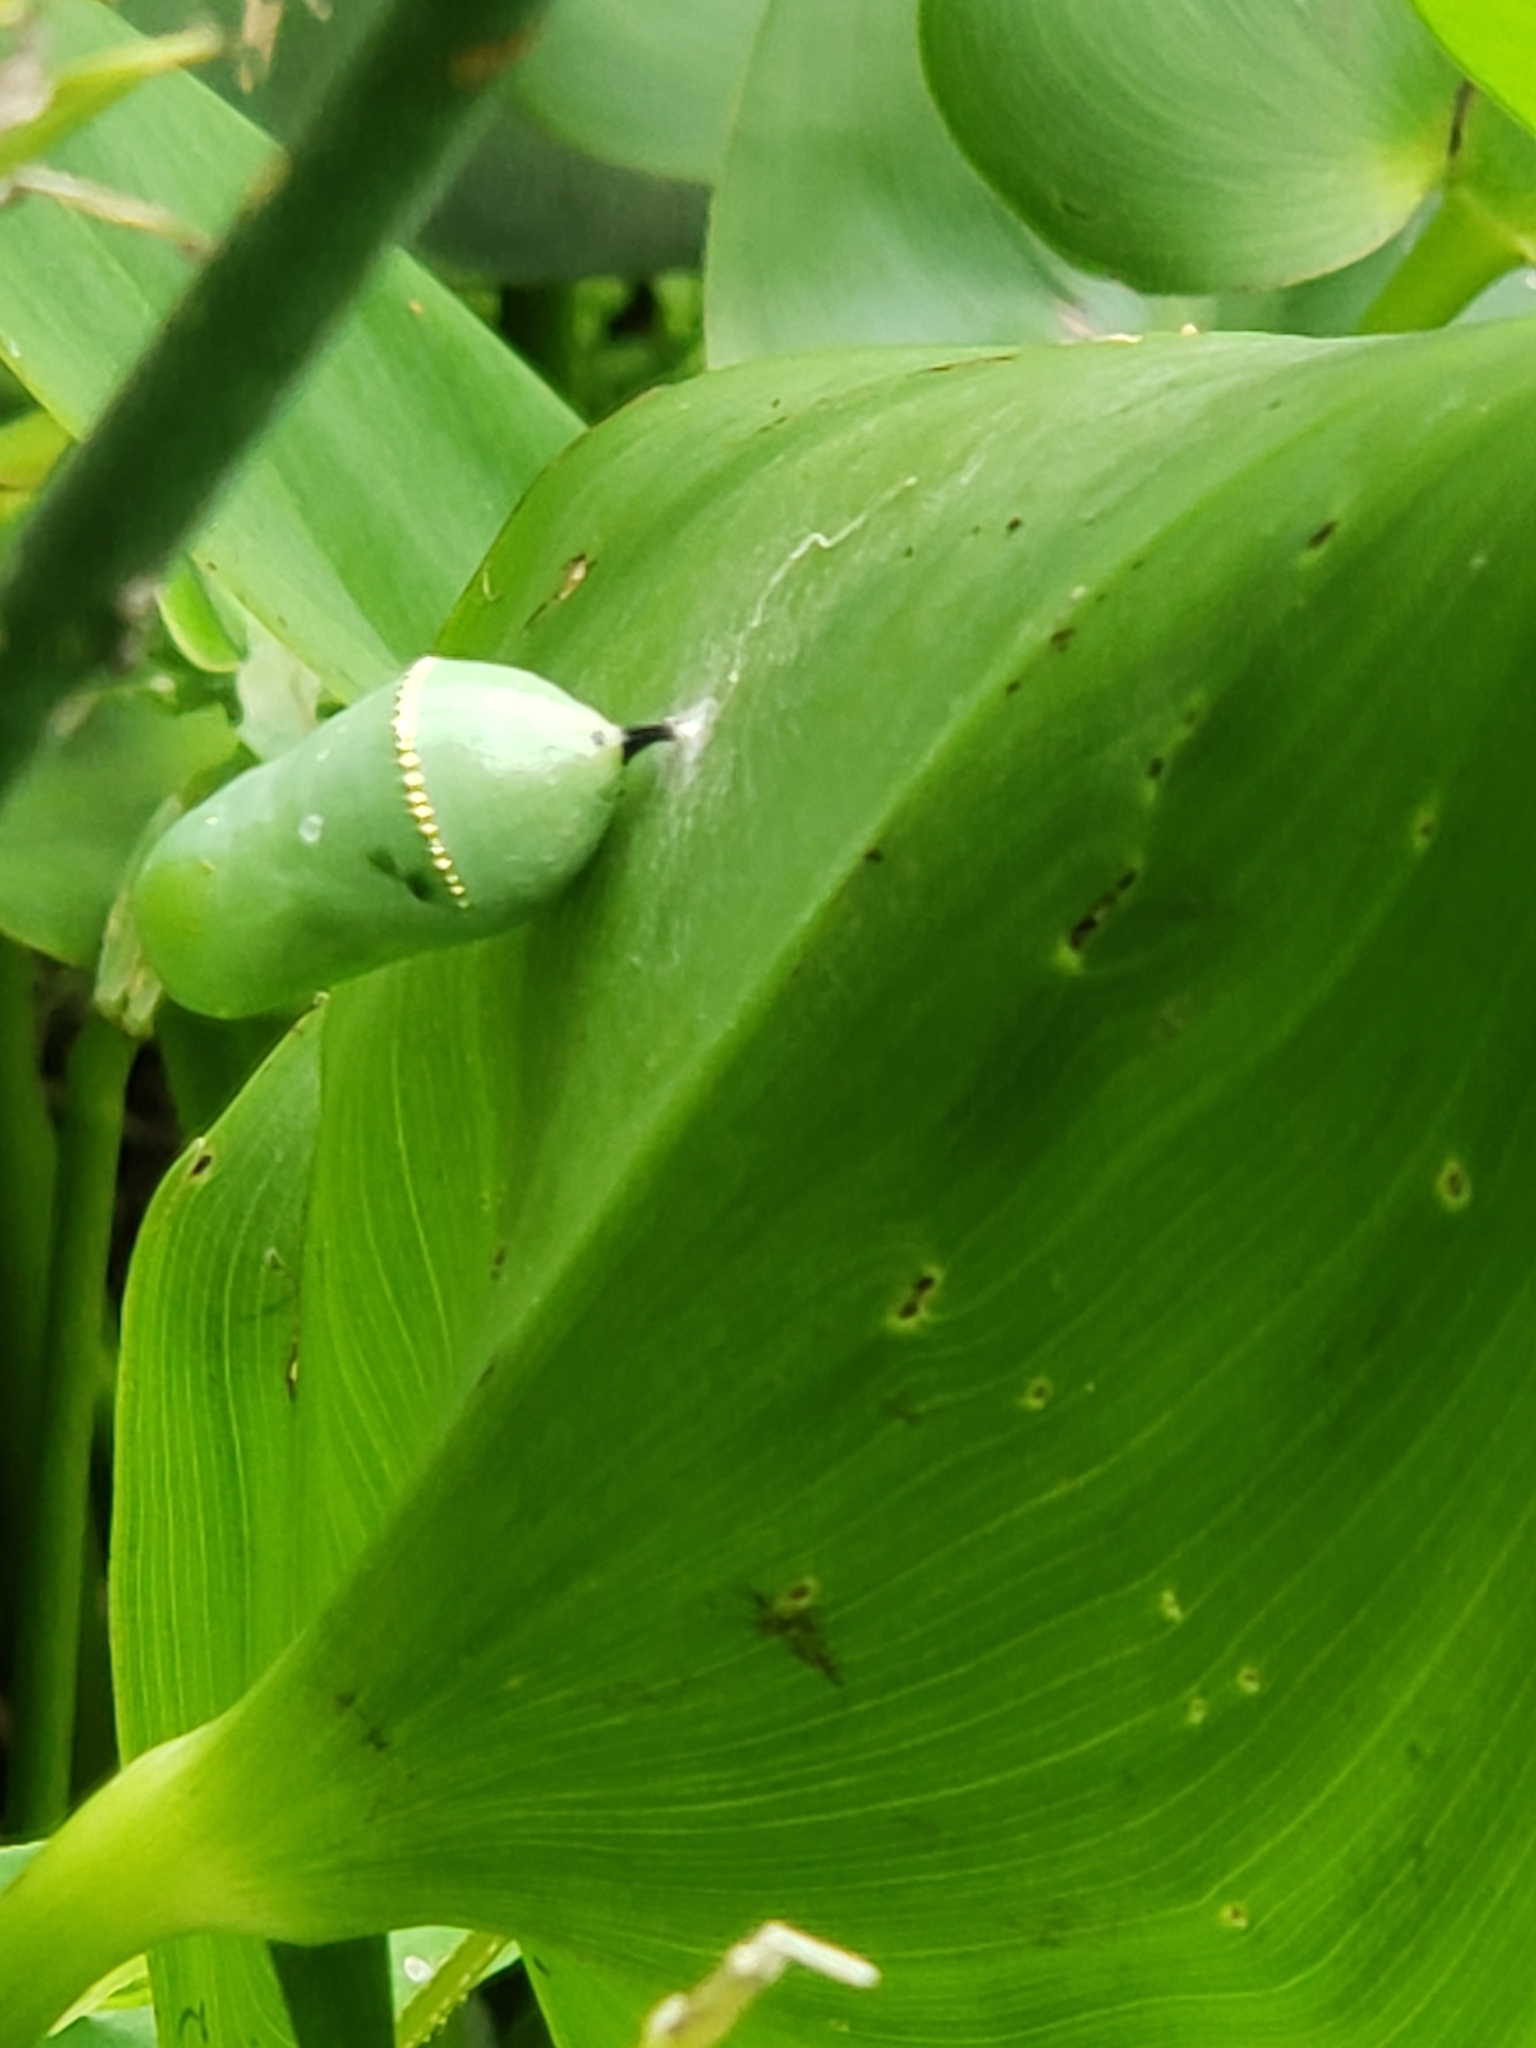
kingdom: Animalia
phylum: Arthropoda
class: Insecta
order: Lepidoptera
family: Nymphalidae
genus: Danaus
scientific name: Danaus plexippus
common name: Monarch
